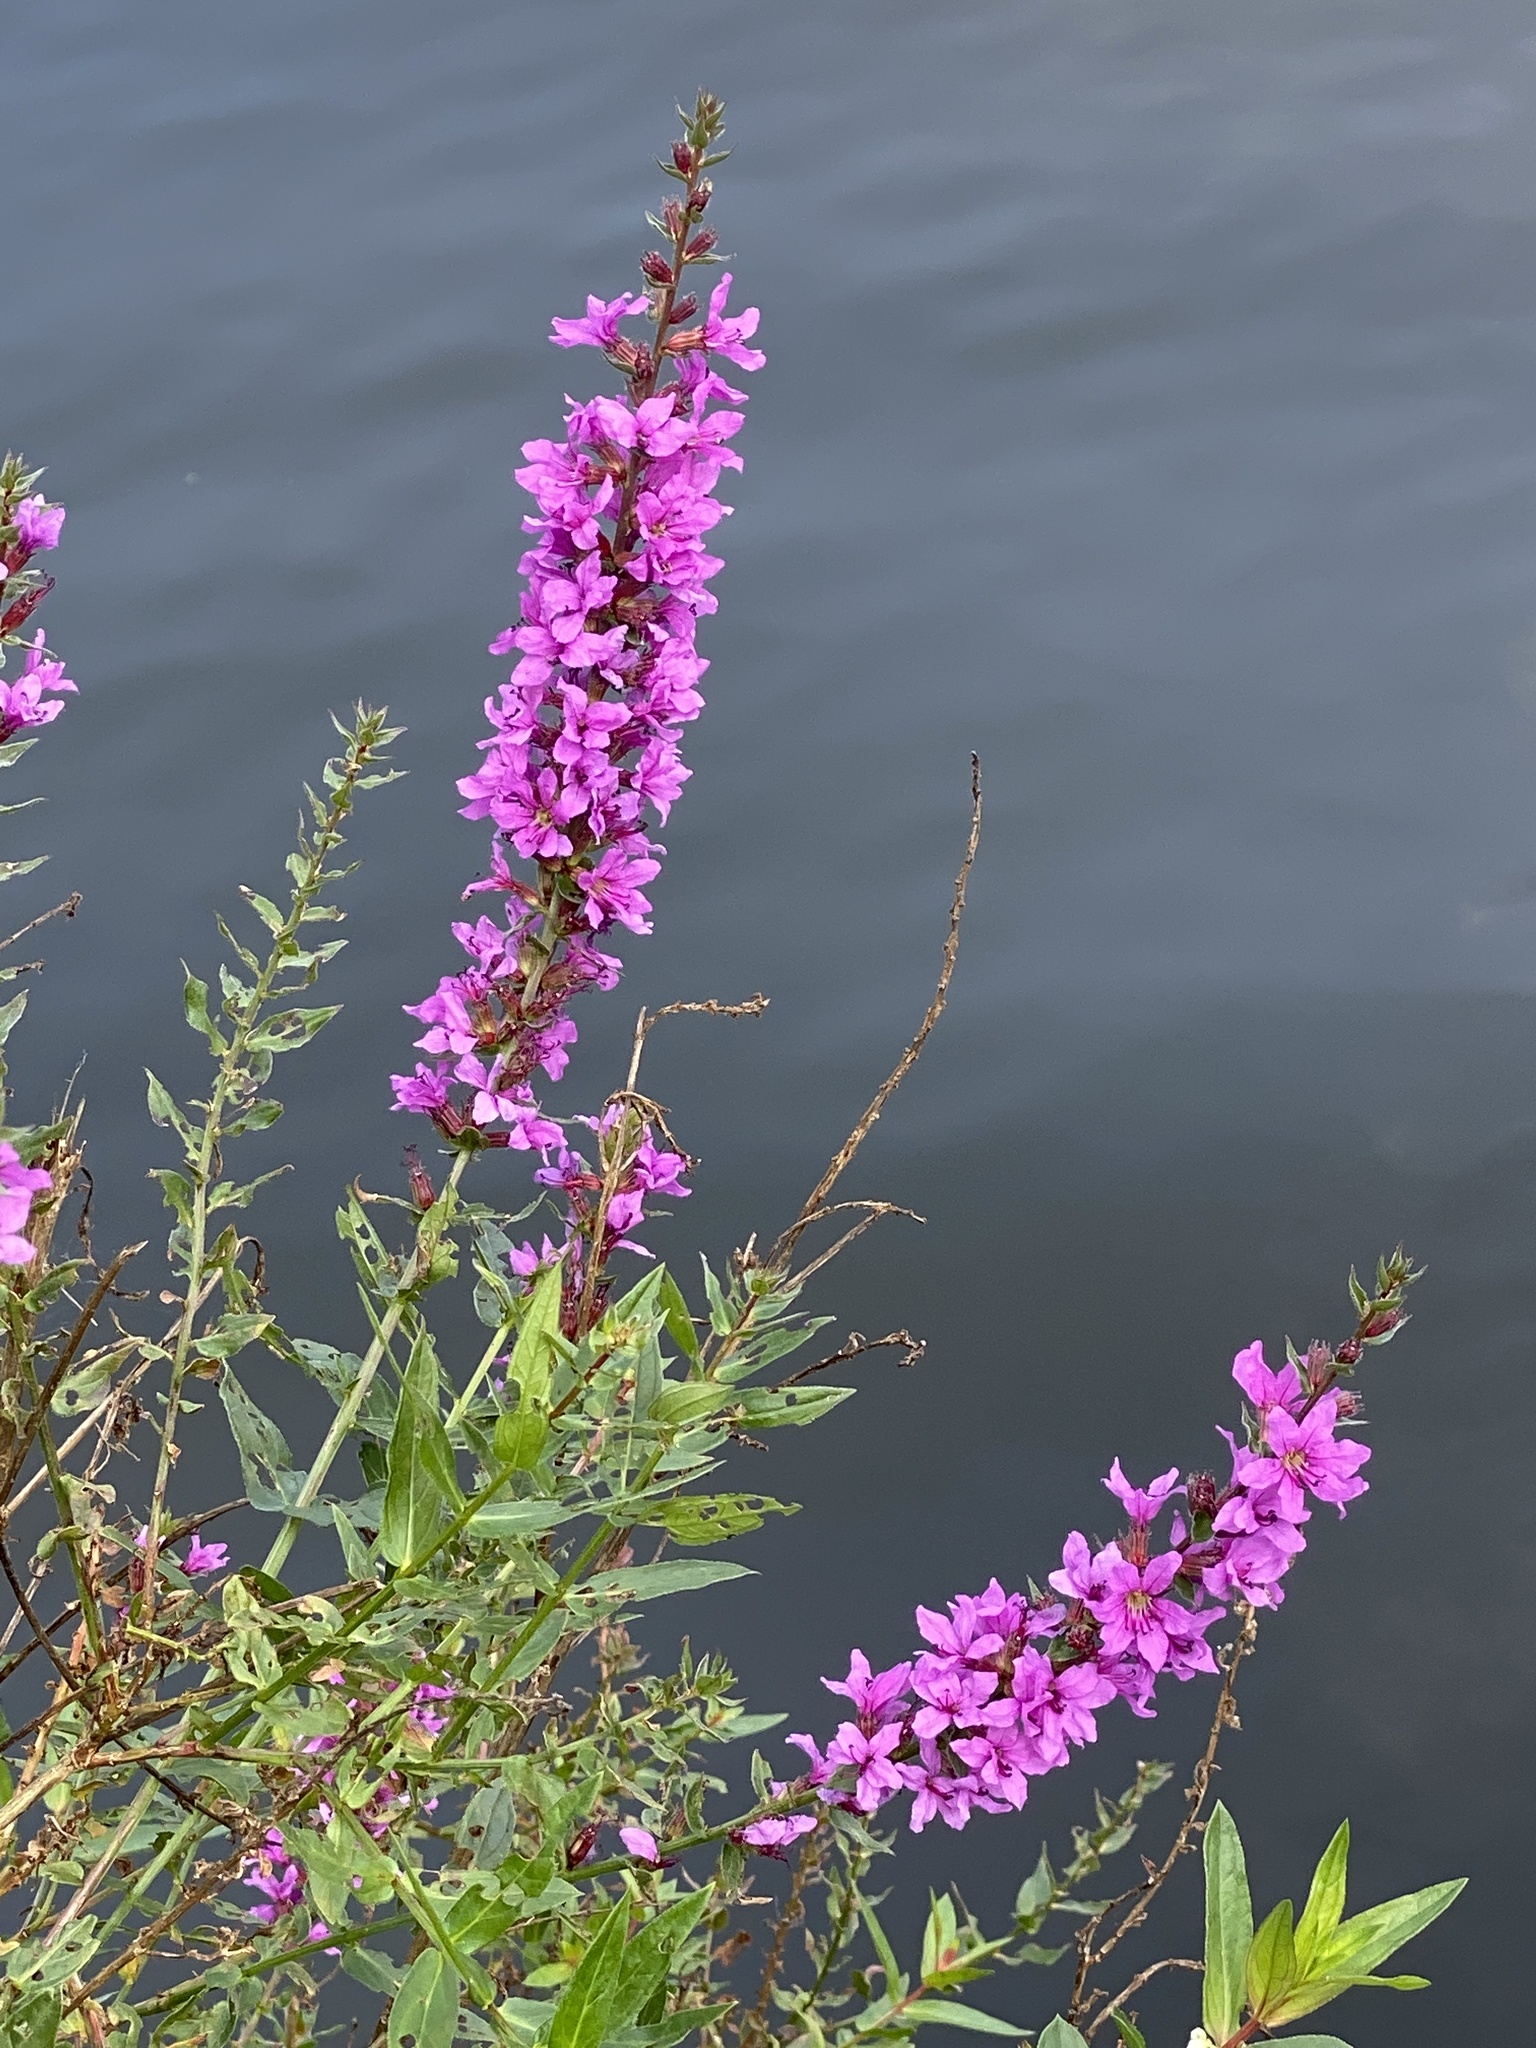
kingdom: Plantae
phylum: Tracheophyta
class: Magnoliopsida
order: Myrtales
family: Lythraceae
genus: Lythrum
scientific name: Lythrum salicaria
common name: Purple loosestrife
